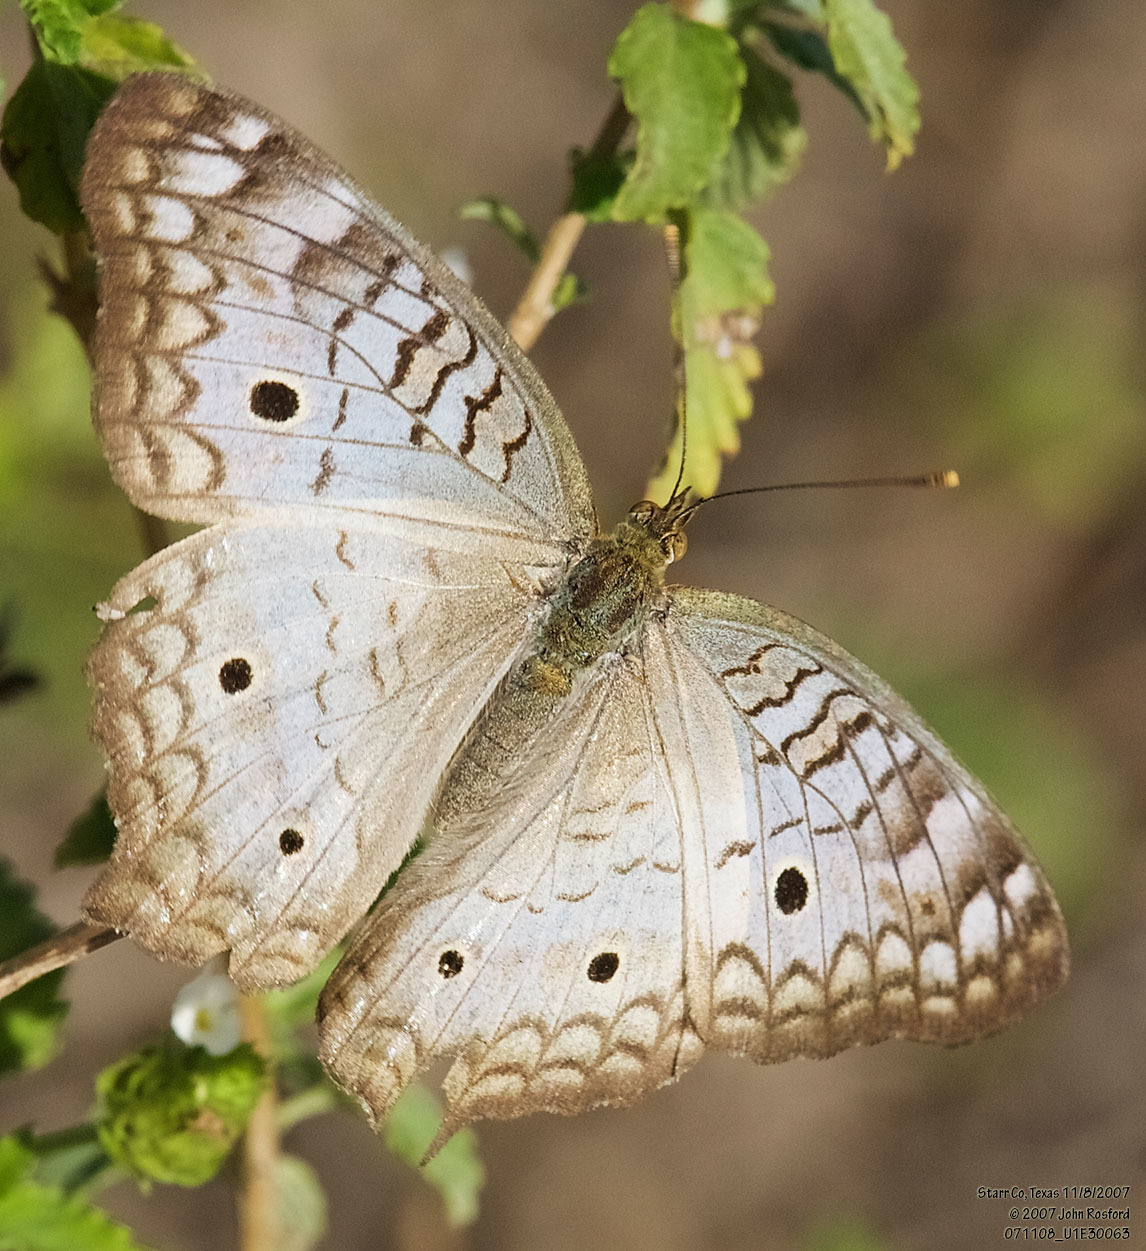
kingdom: Animalia
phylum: Arthropoda
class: Insecta
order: Lepidoptera
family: Nymphalidae
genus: Anartia
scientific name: Anartia jatrophae
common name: White peacock
